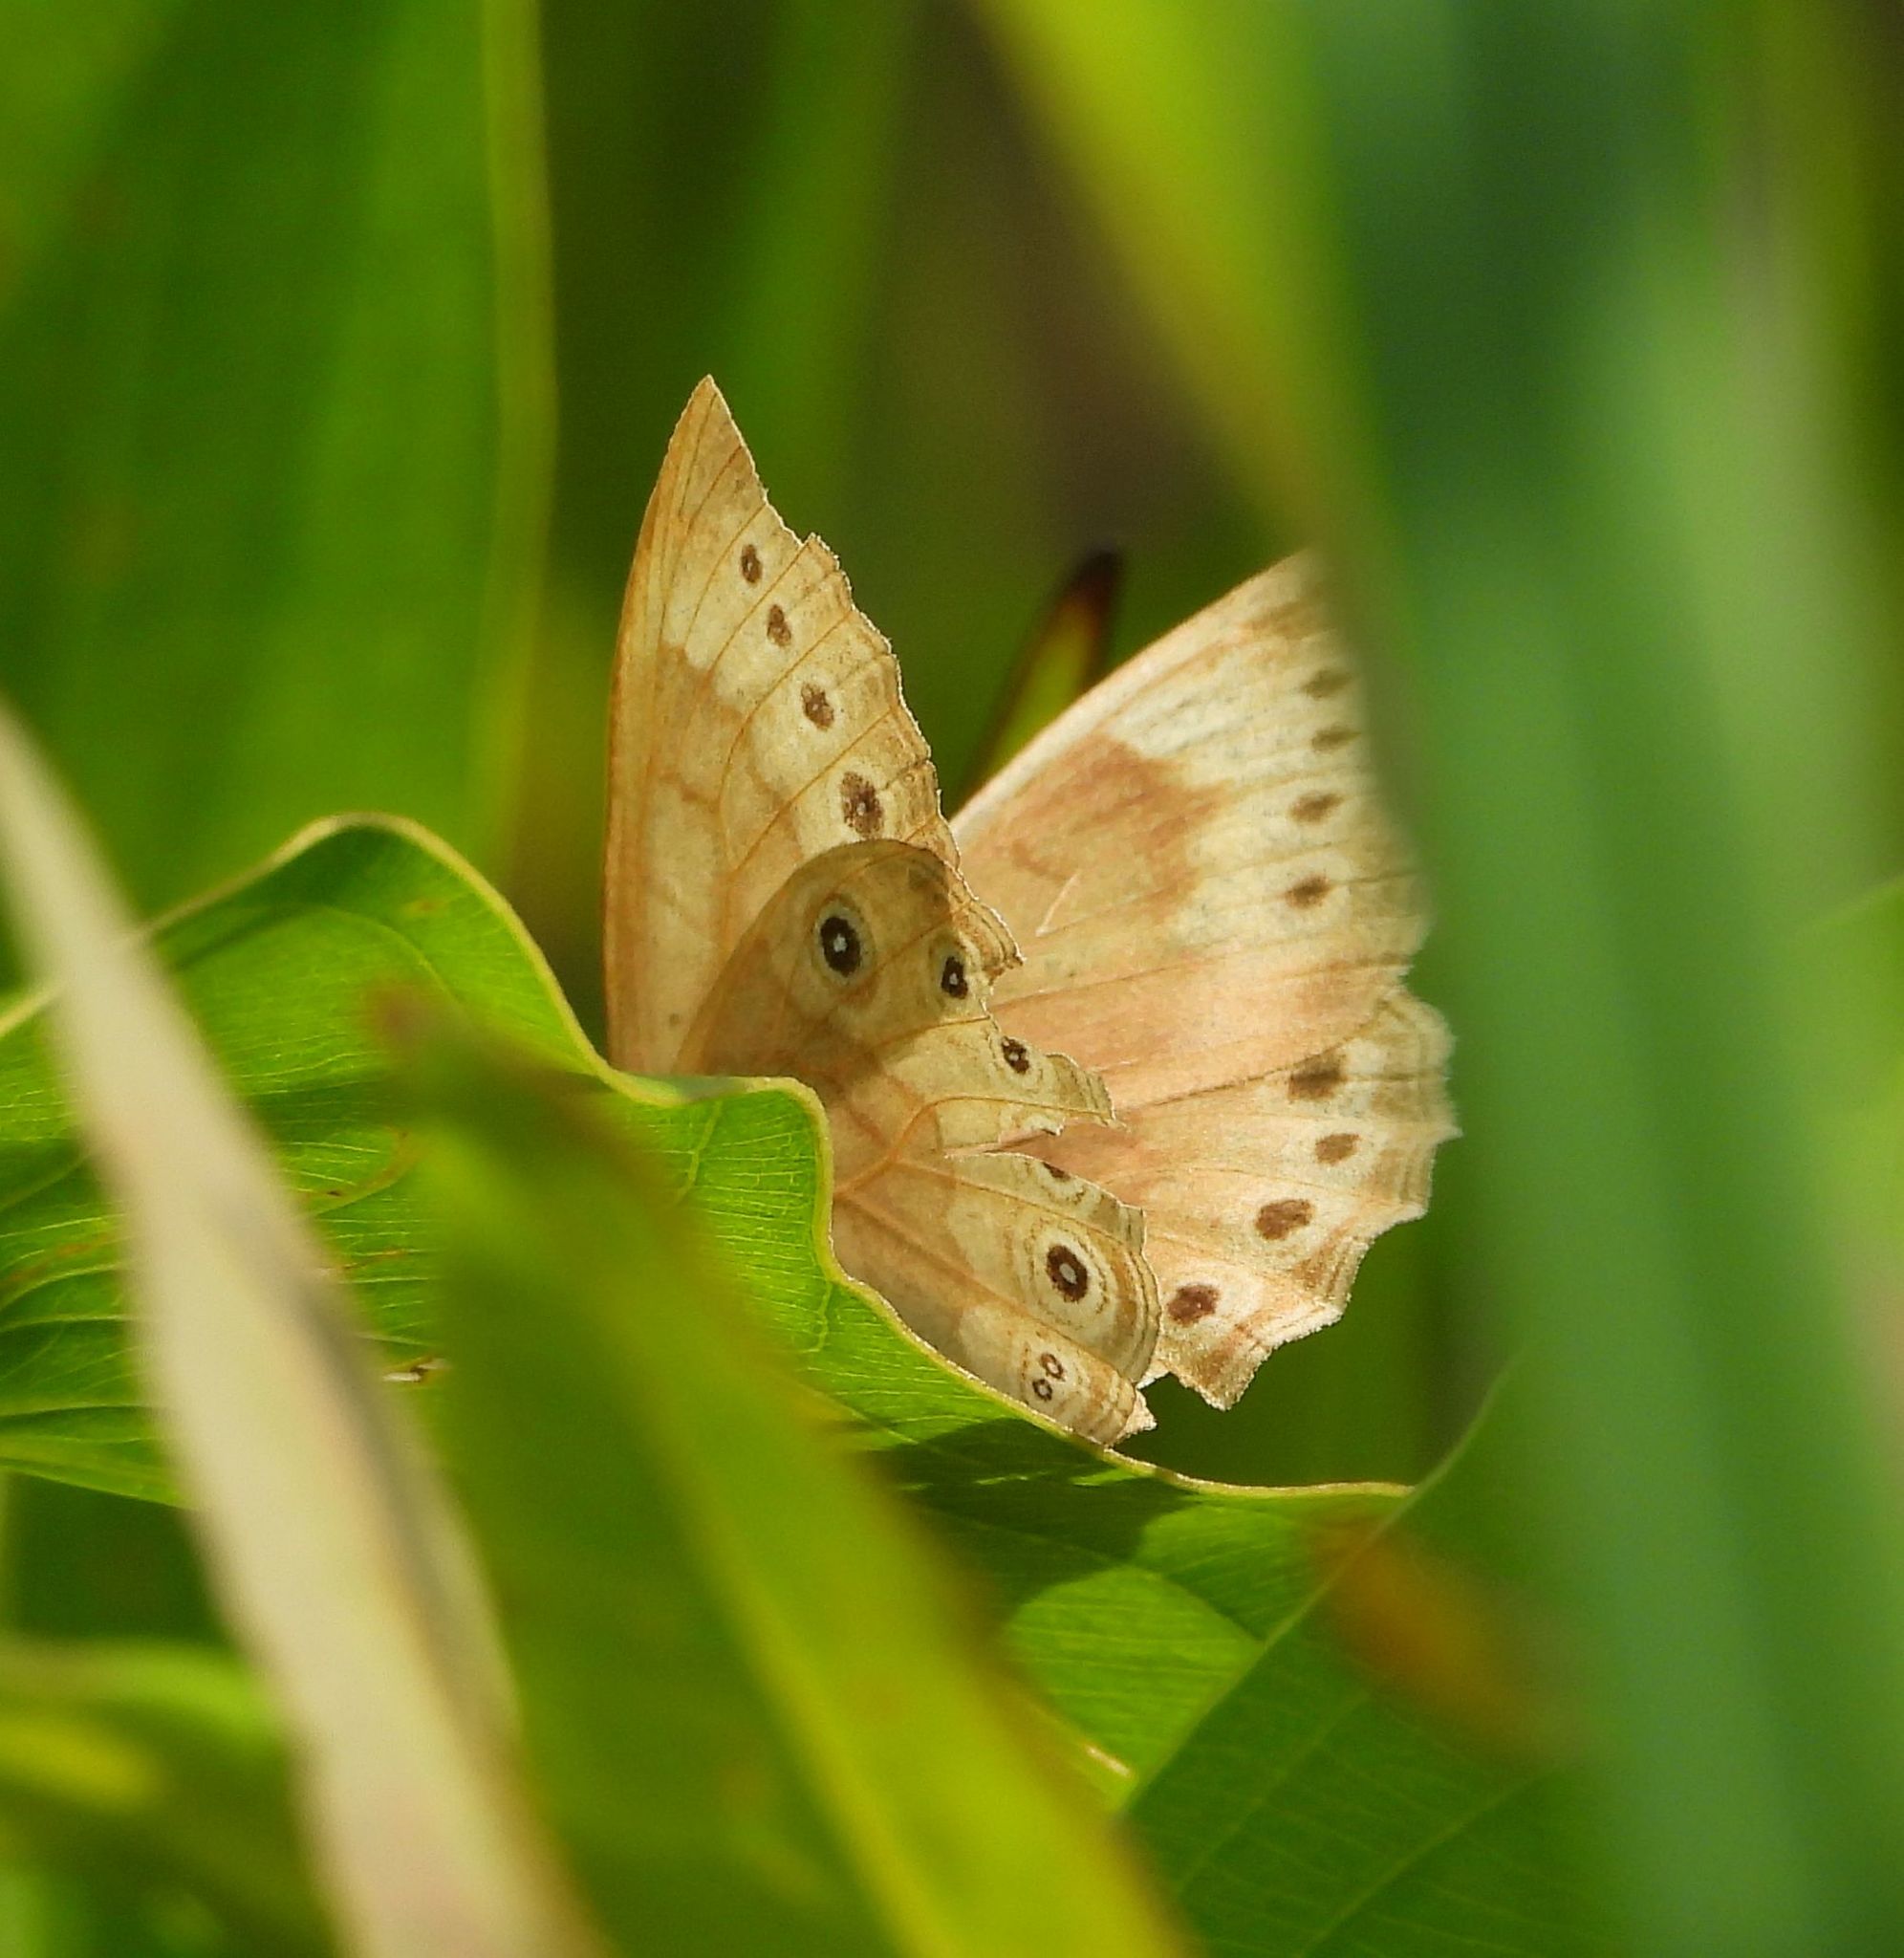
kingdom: Animalia
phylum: Arthropoda
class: Insecta
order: Lepidoptera
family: Nymphalidae
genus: Lethe
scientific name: Lethe
